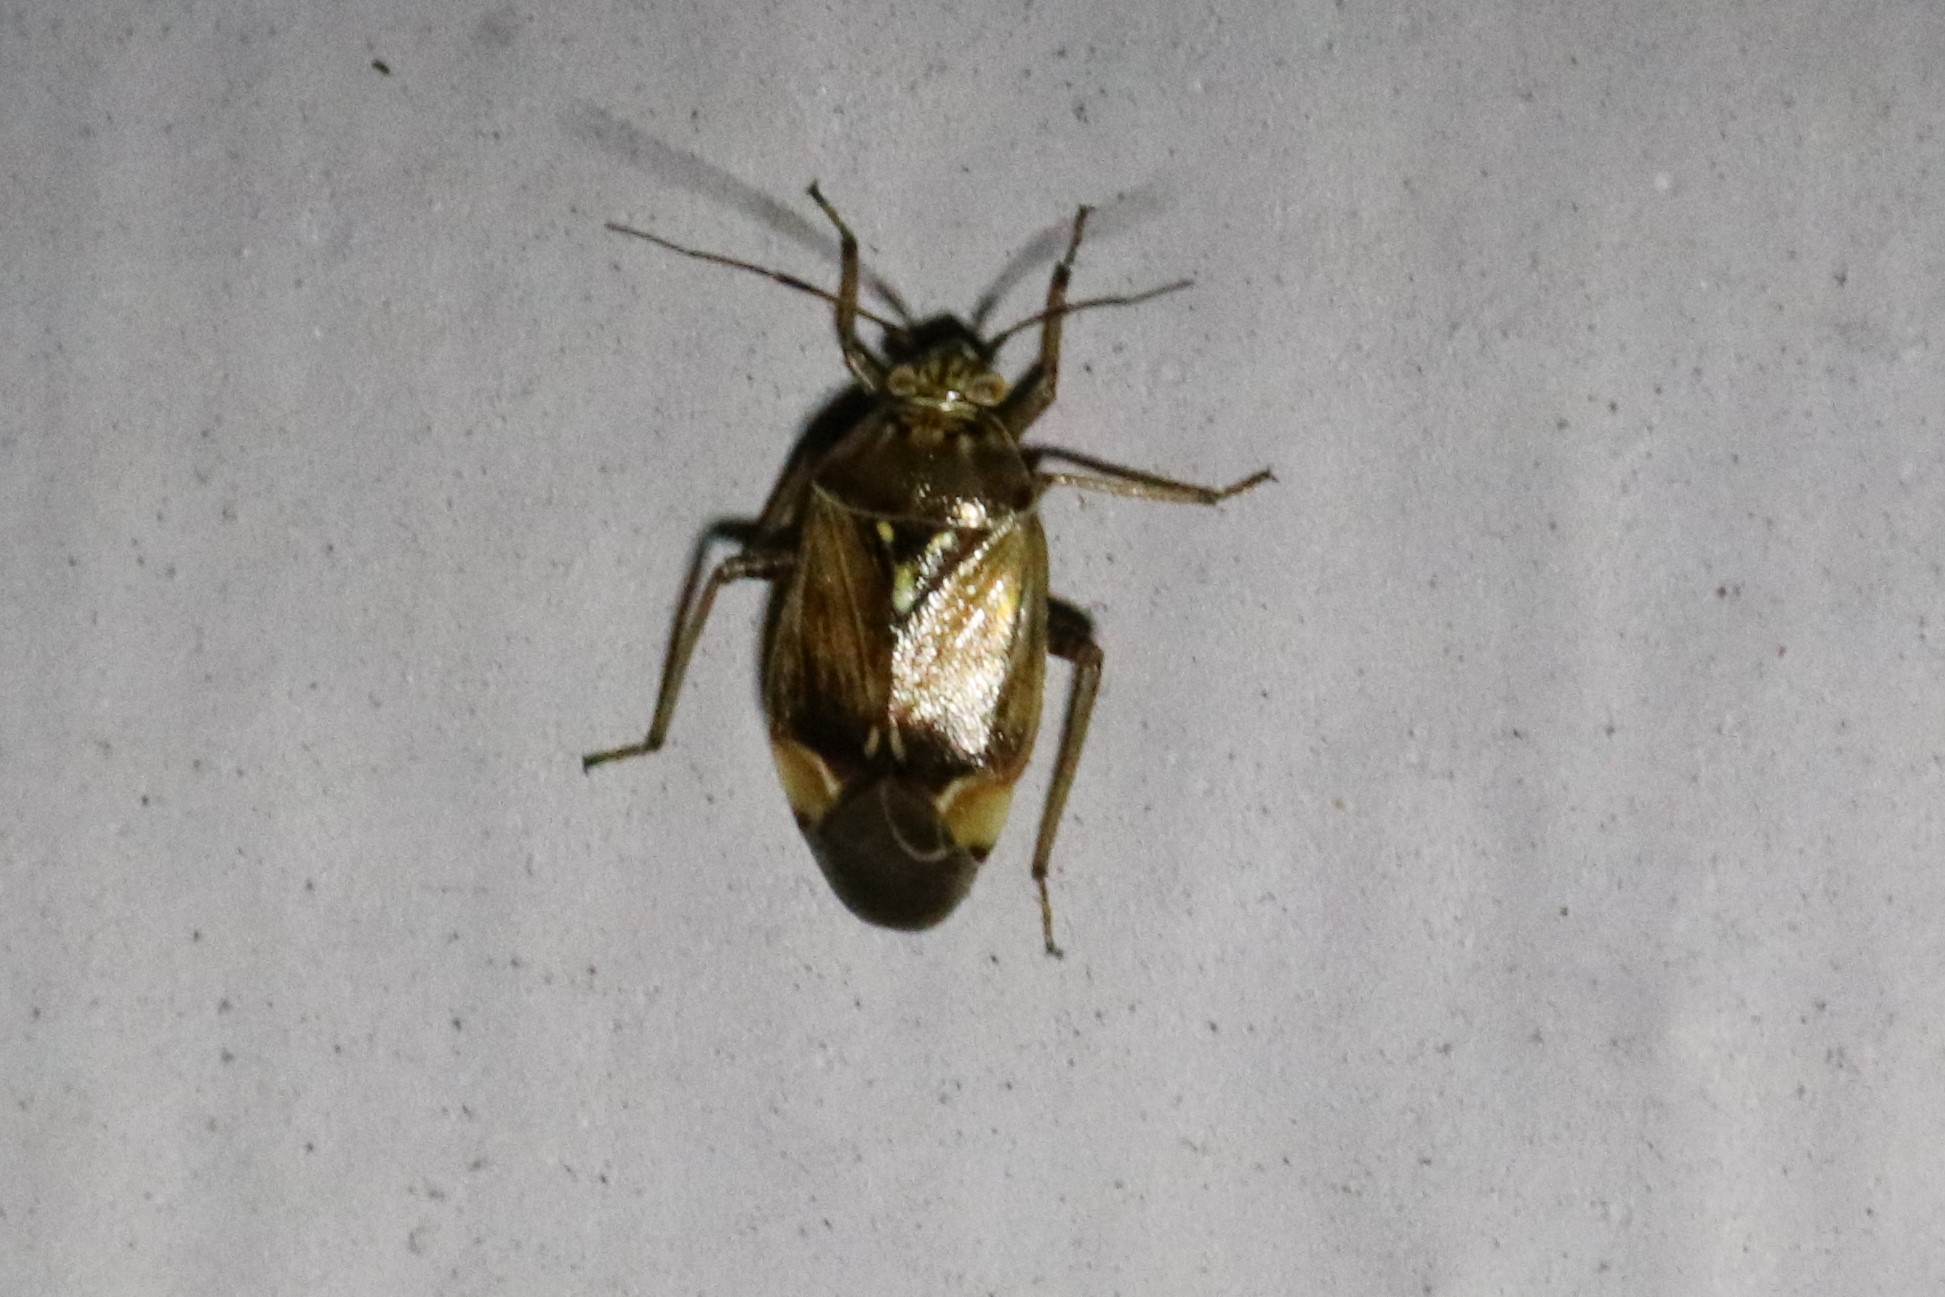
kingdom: Animalia
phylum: Arthropoda
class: Insecta
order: Hemiptera
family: Miridae
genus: Lygus
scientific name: Lygus lineolaris
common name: North american tarnished plant bug
